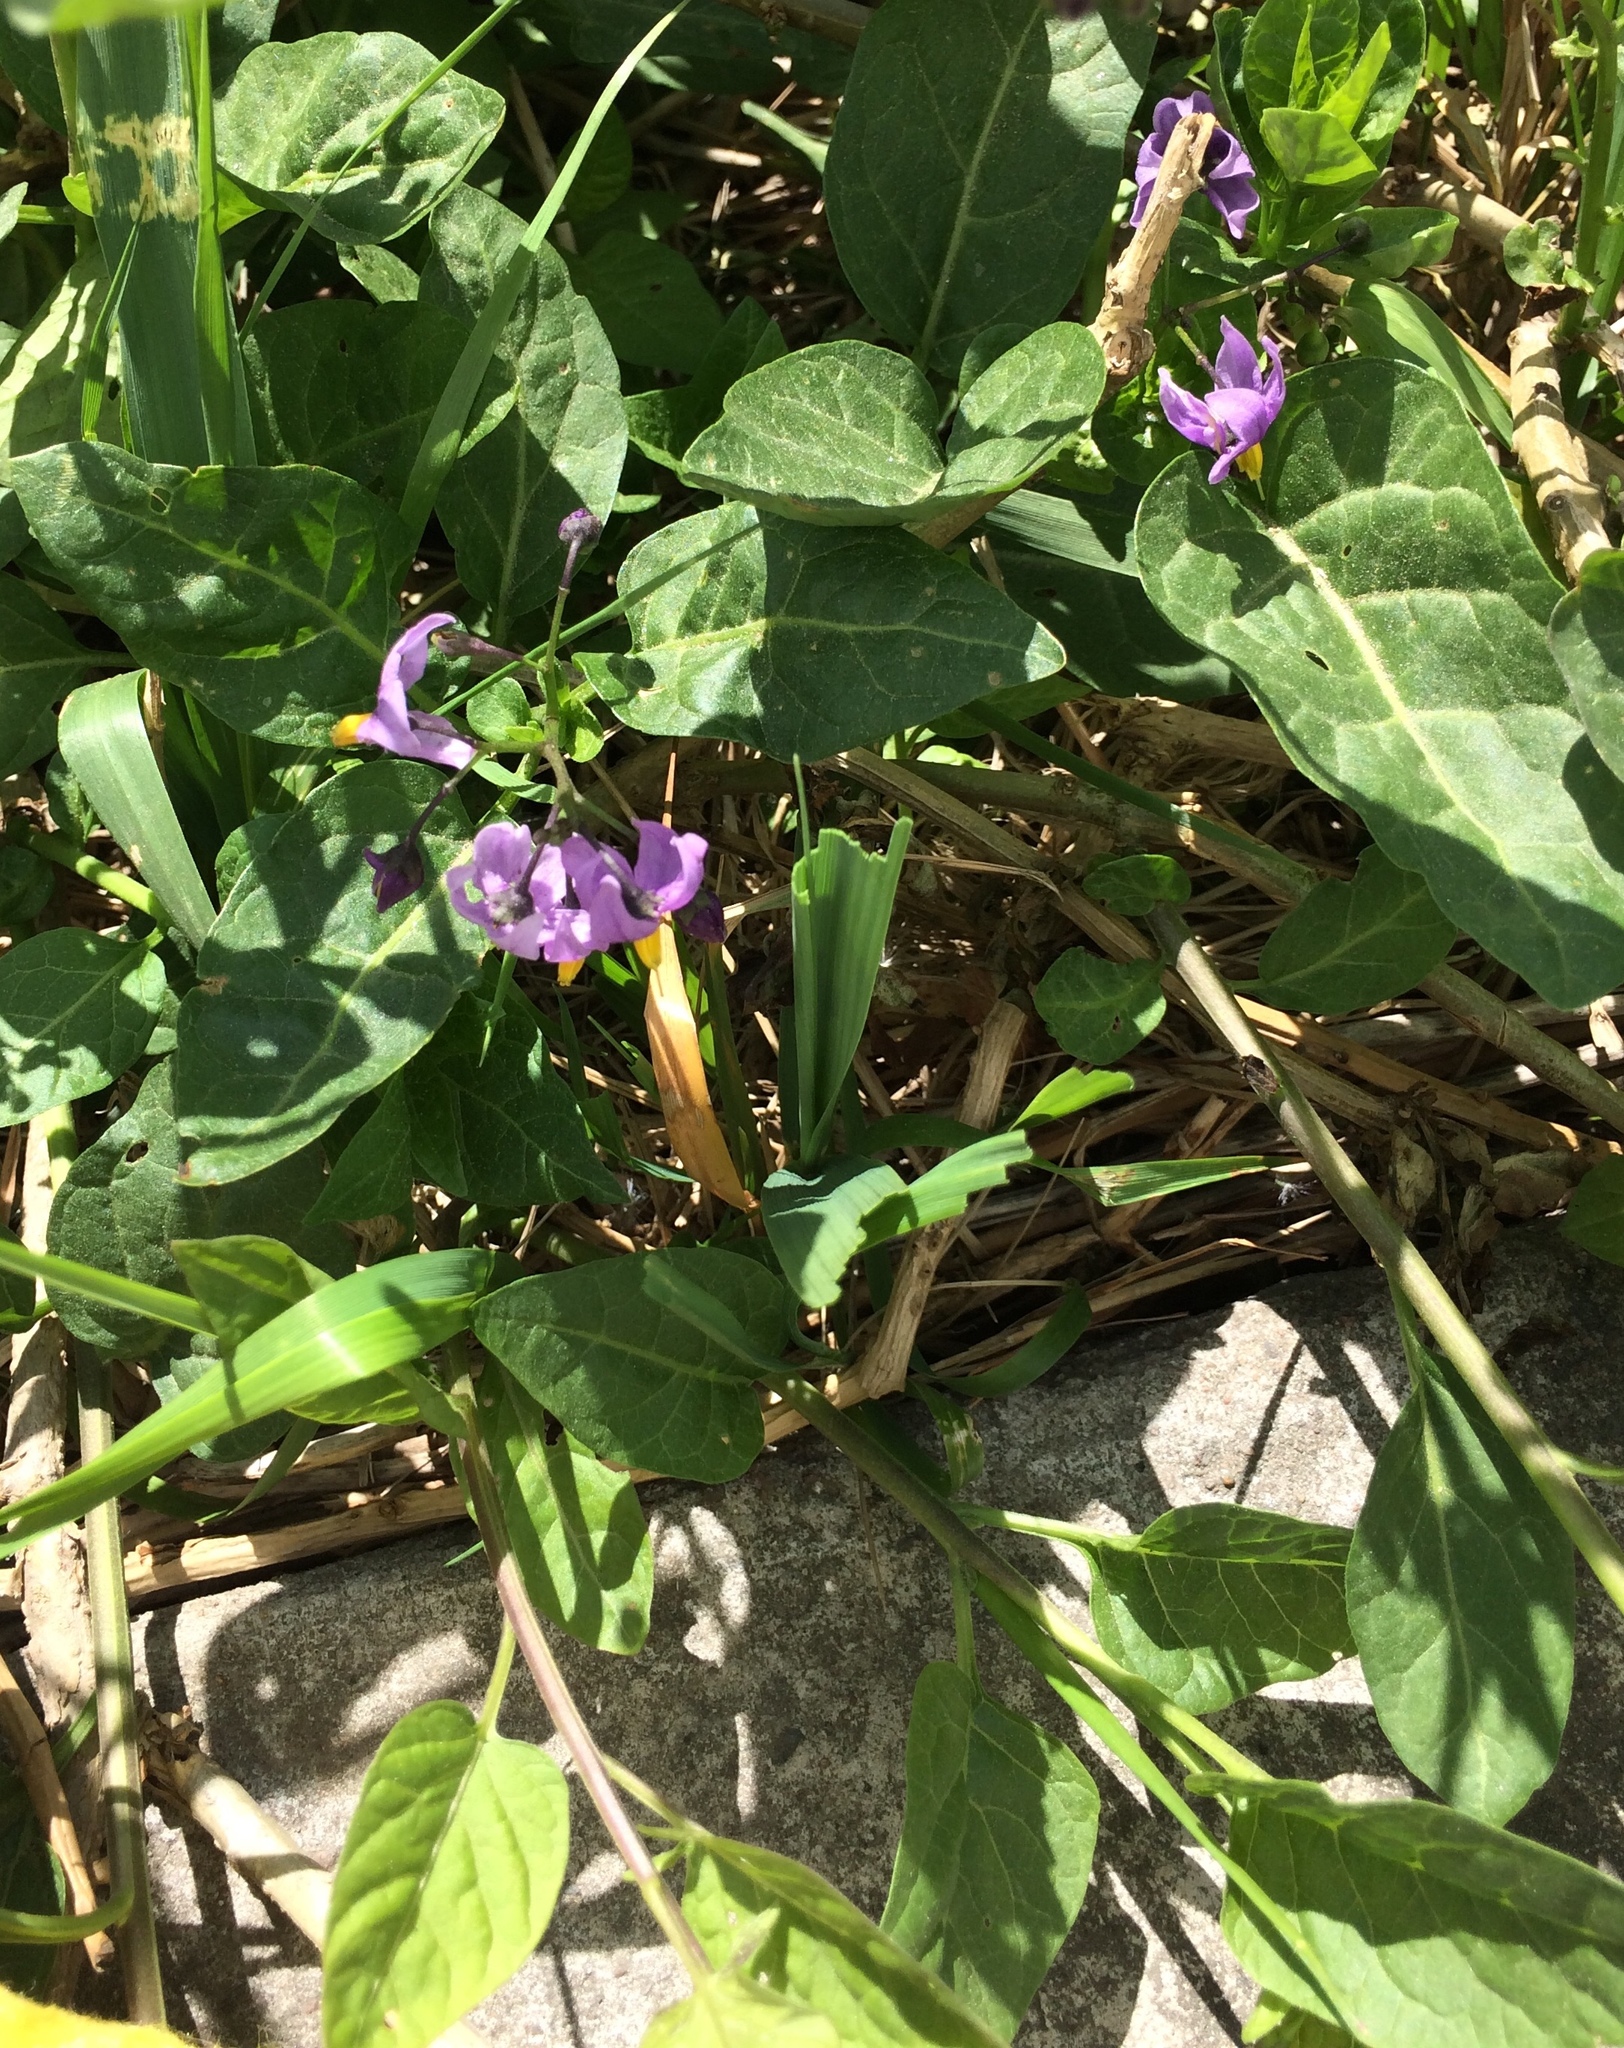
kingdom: Plantae
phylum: Tracheophyta
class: Magnoliopsida
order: Solanales
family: Solanaceae
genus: Solanum
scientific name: Solanum dulcamara
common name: Climbing nightshade
